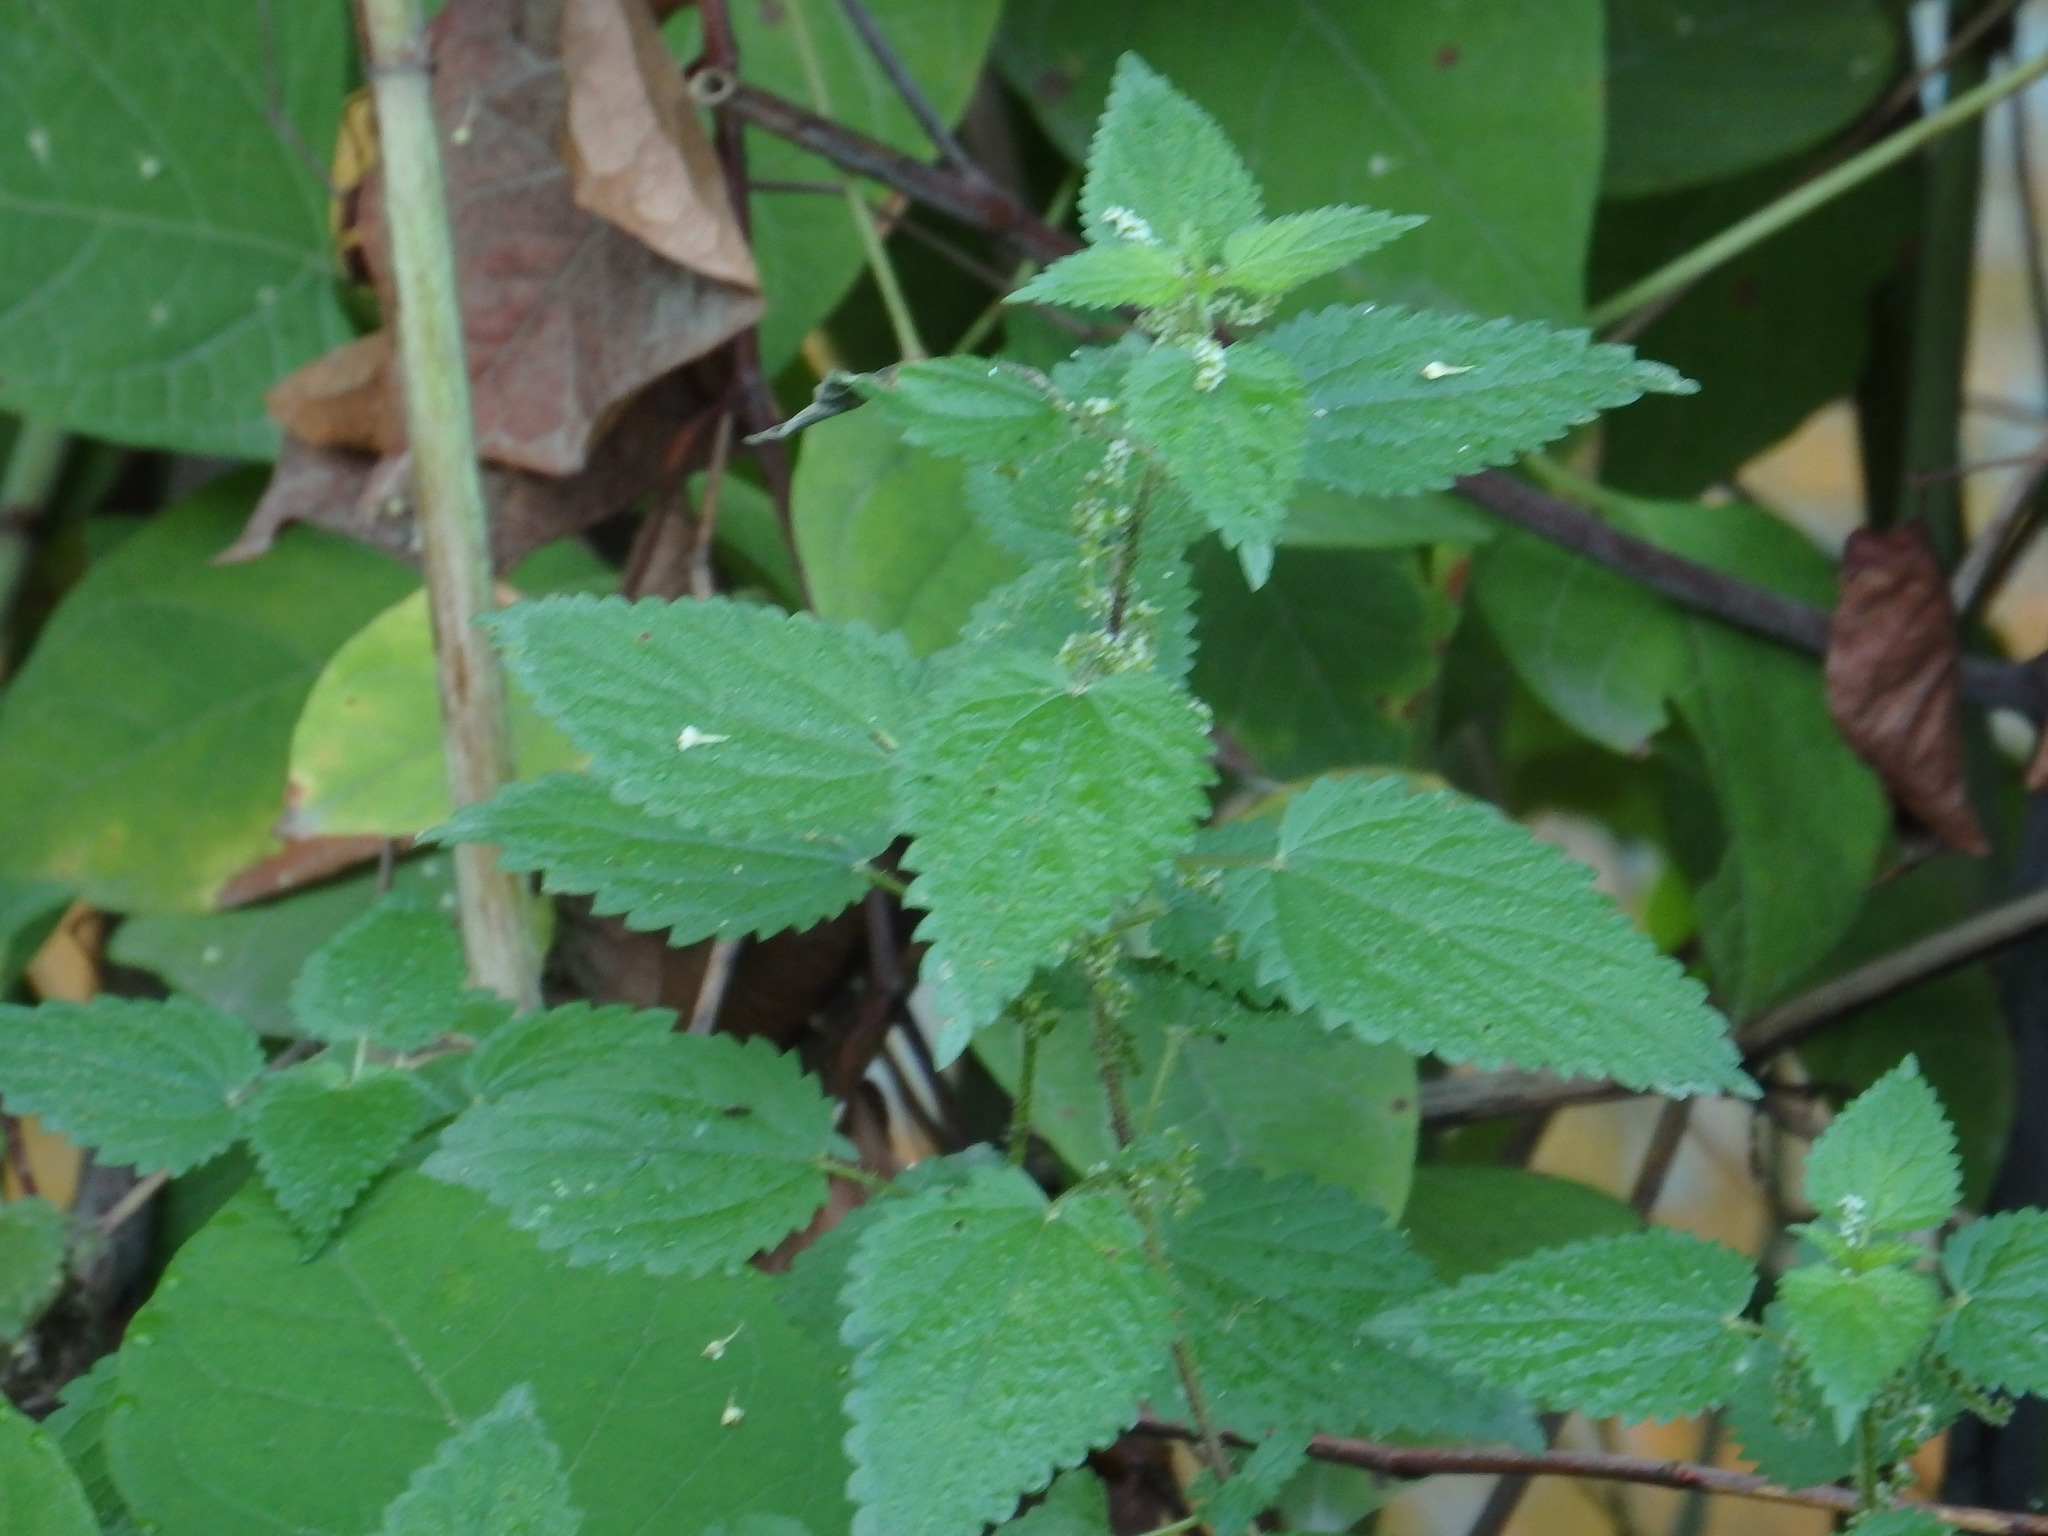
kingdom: Plantae
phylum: Tracheophyta
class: Magnoliopsida
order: Rosales
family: Urticaceae
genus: Urtica
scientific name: Urtica dioica
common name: Common nettle
